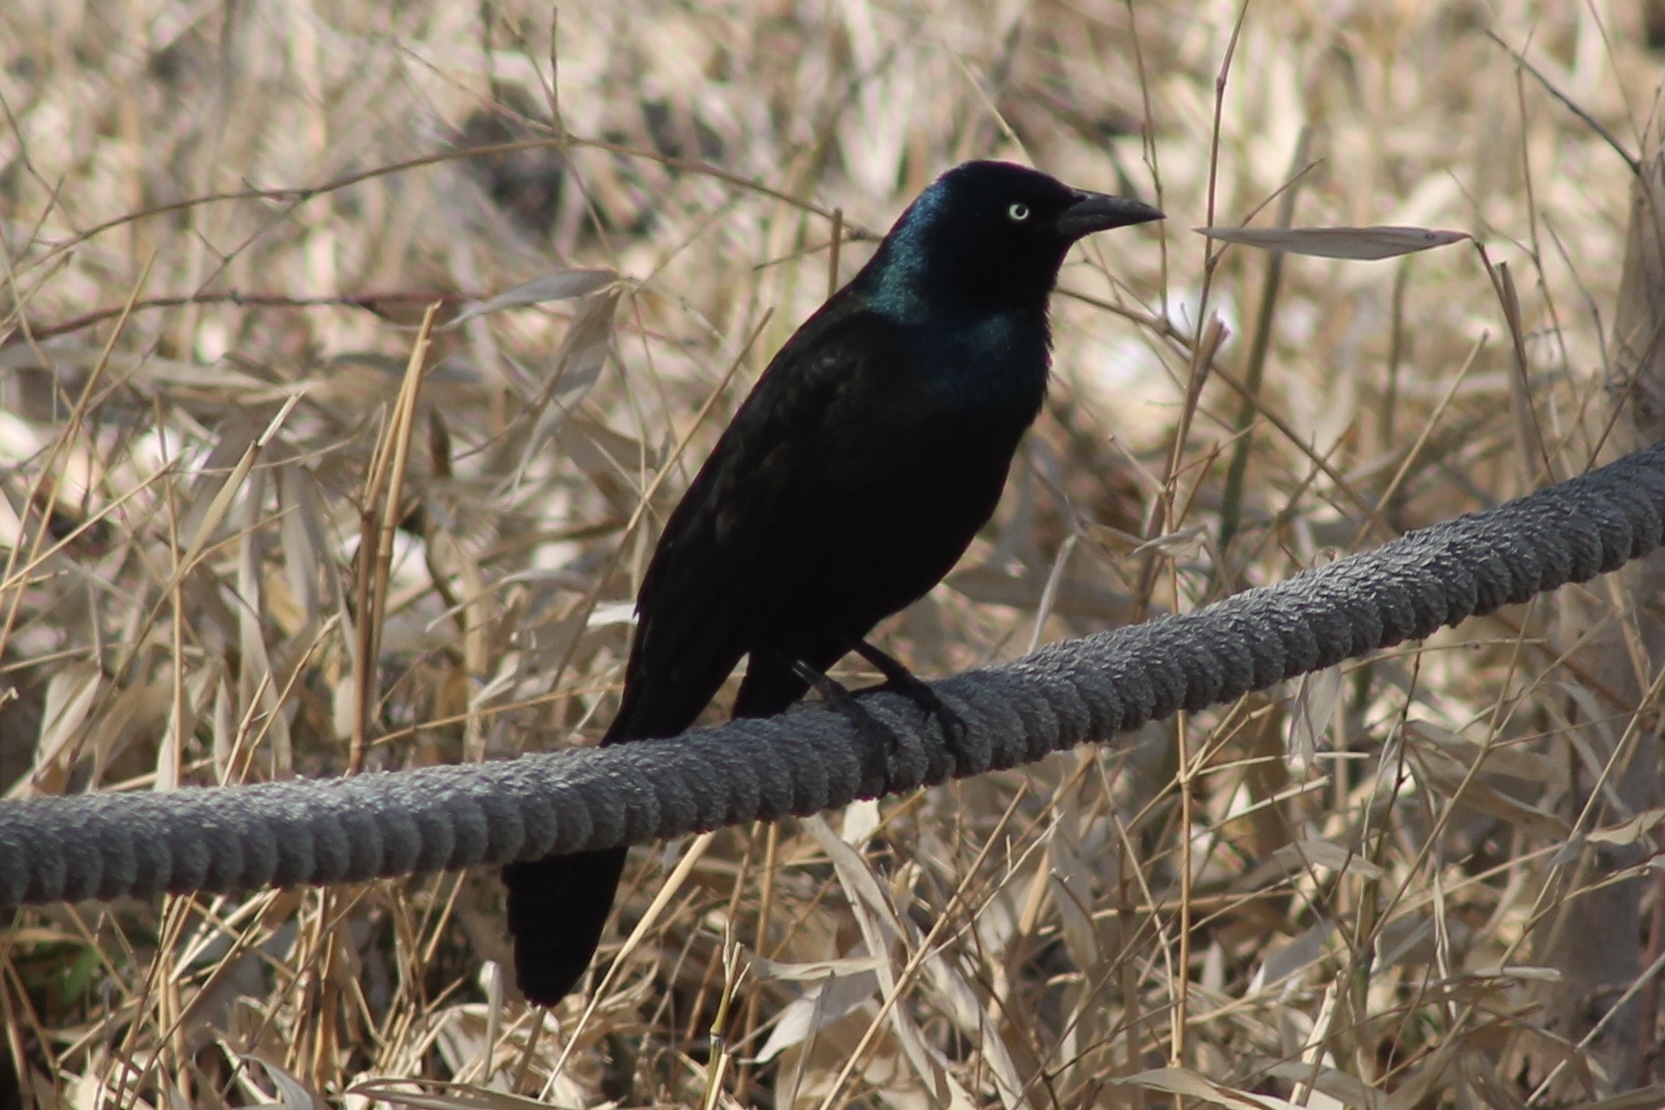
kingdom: Animalia
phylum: Chordata
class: Aves
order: Passeriformes
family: Icteridae
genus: Quiscalus
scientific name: Quiscalus quiscula
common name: Common grackle
